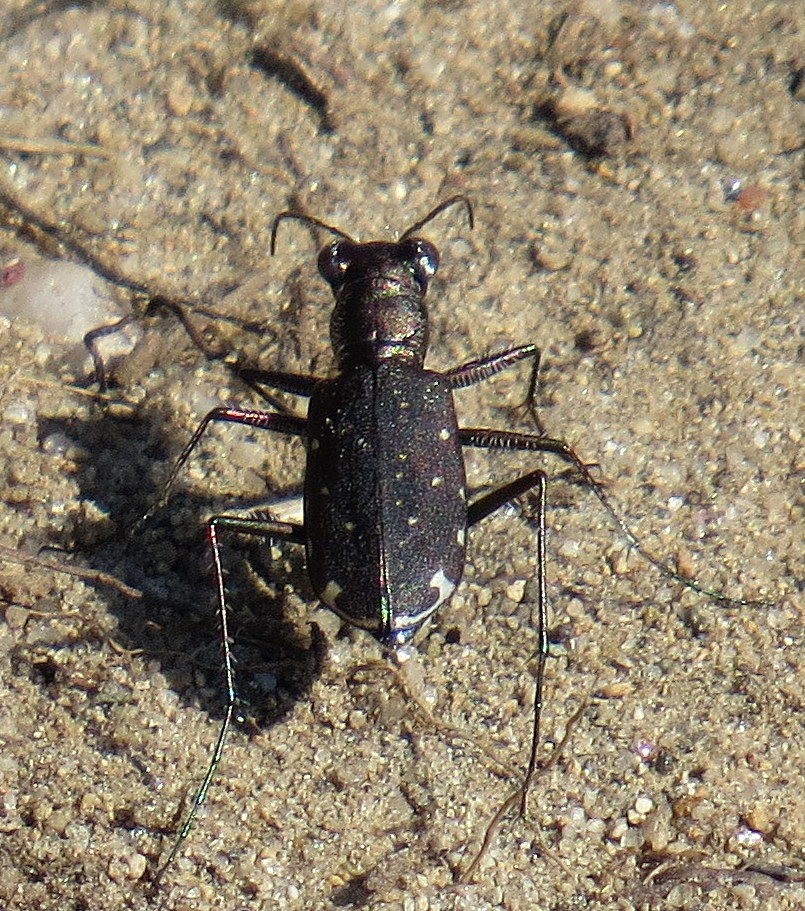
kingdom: Animalia
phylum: Arthropoda
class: Insecta
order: Coleoptera
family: Carabidae
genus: Cicindela
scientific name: Cicindela punctulata
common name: Punctured tiger beetle
